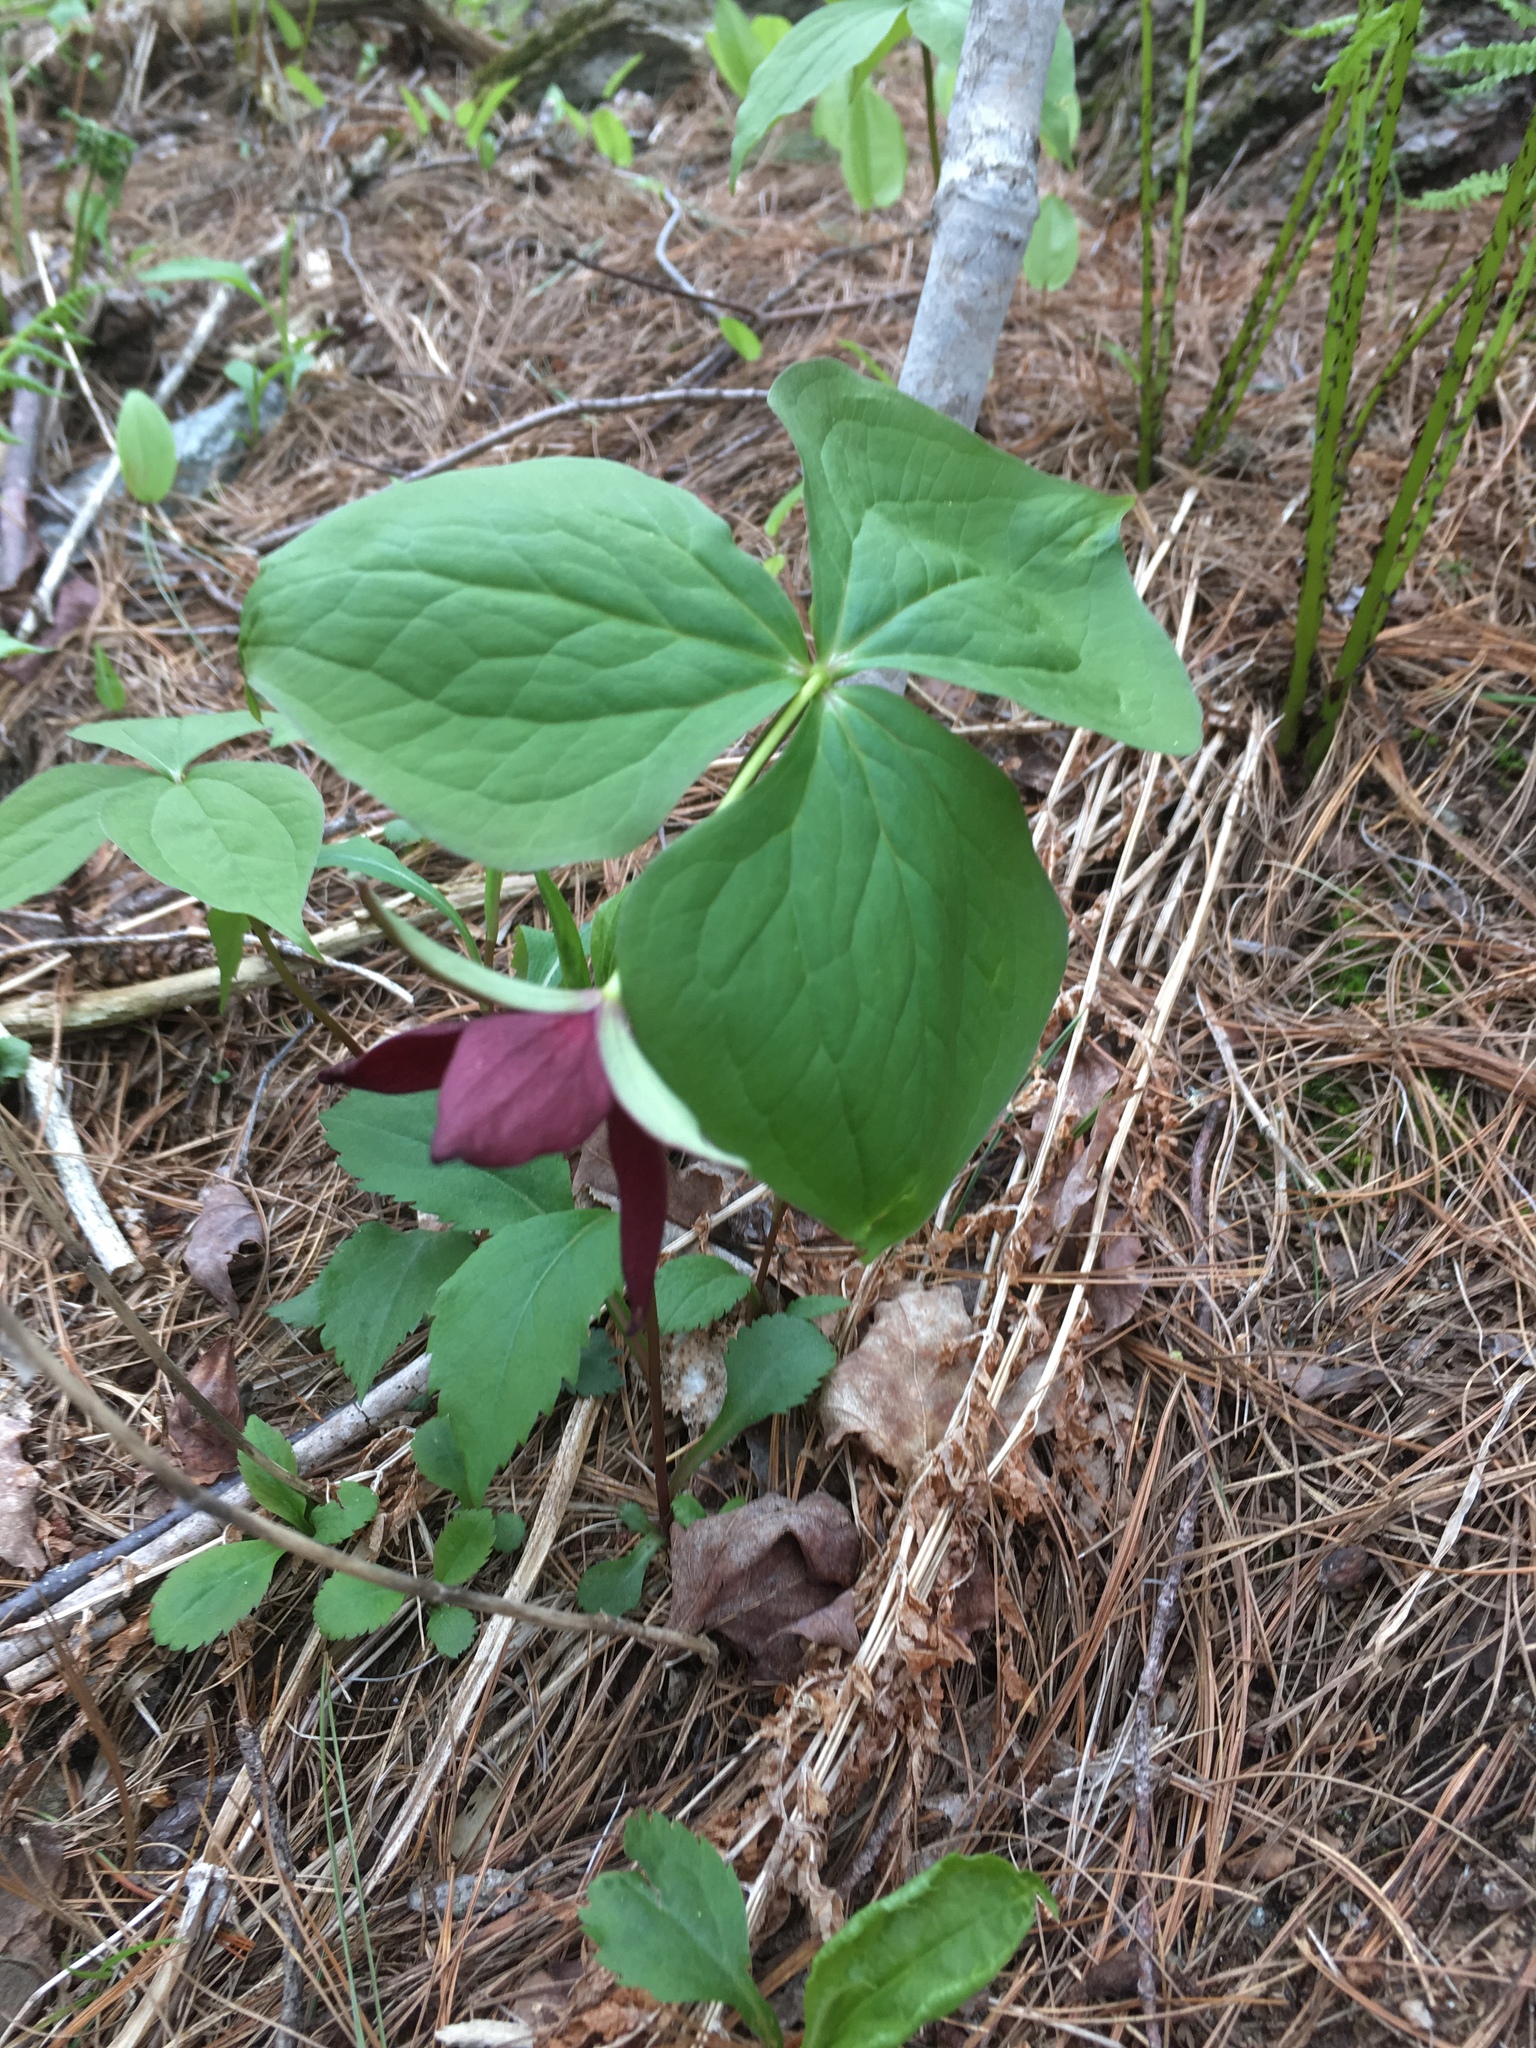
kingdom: Plantae
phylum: Tracheophyta
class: Liliopsida
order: Liliales
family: Melanthiaceae
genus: Trillium
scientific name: Trillium erectum
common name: Purple trillium
